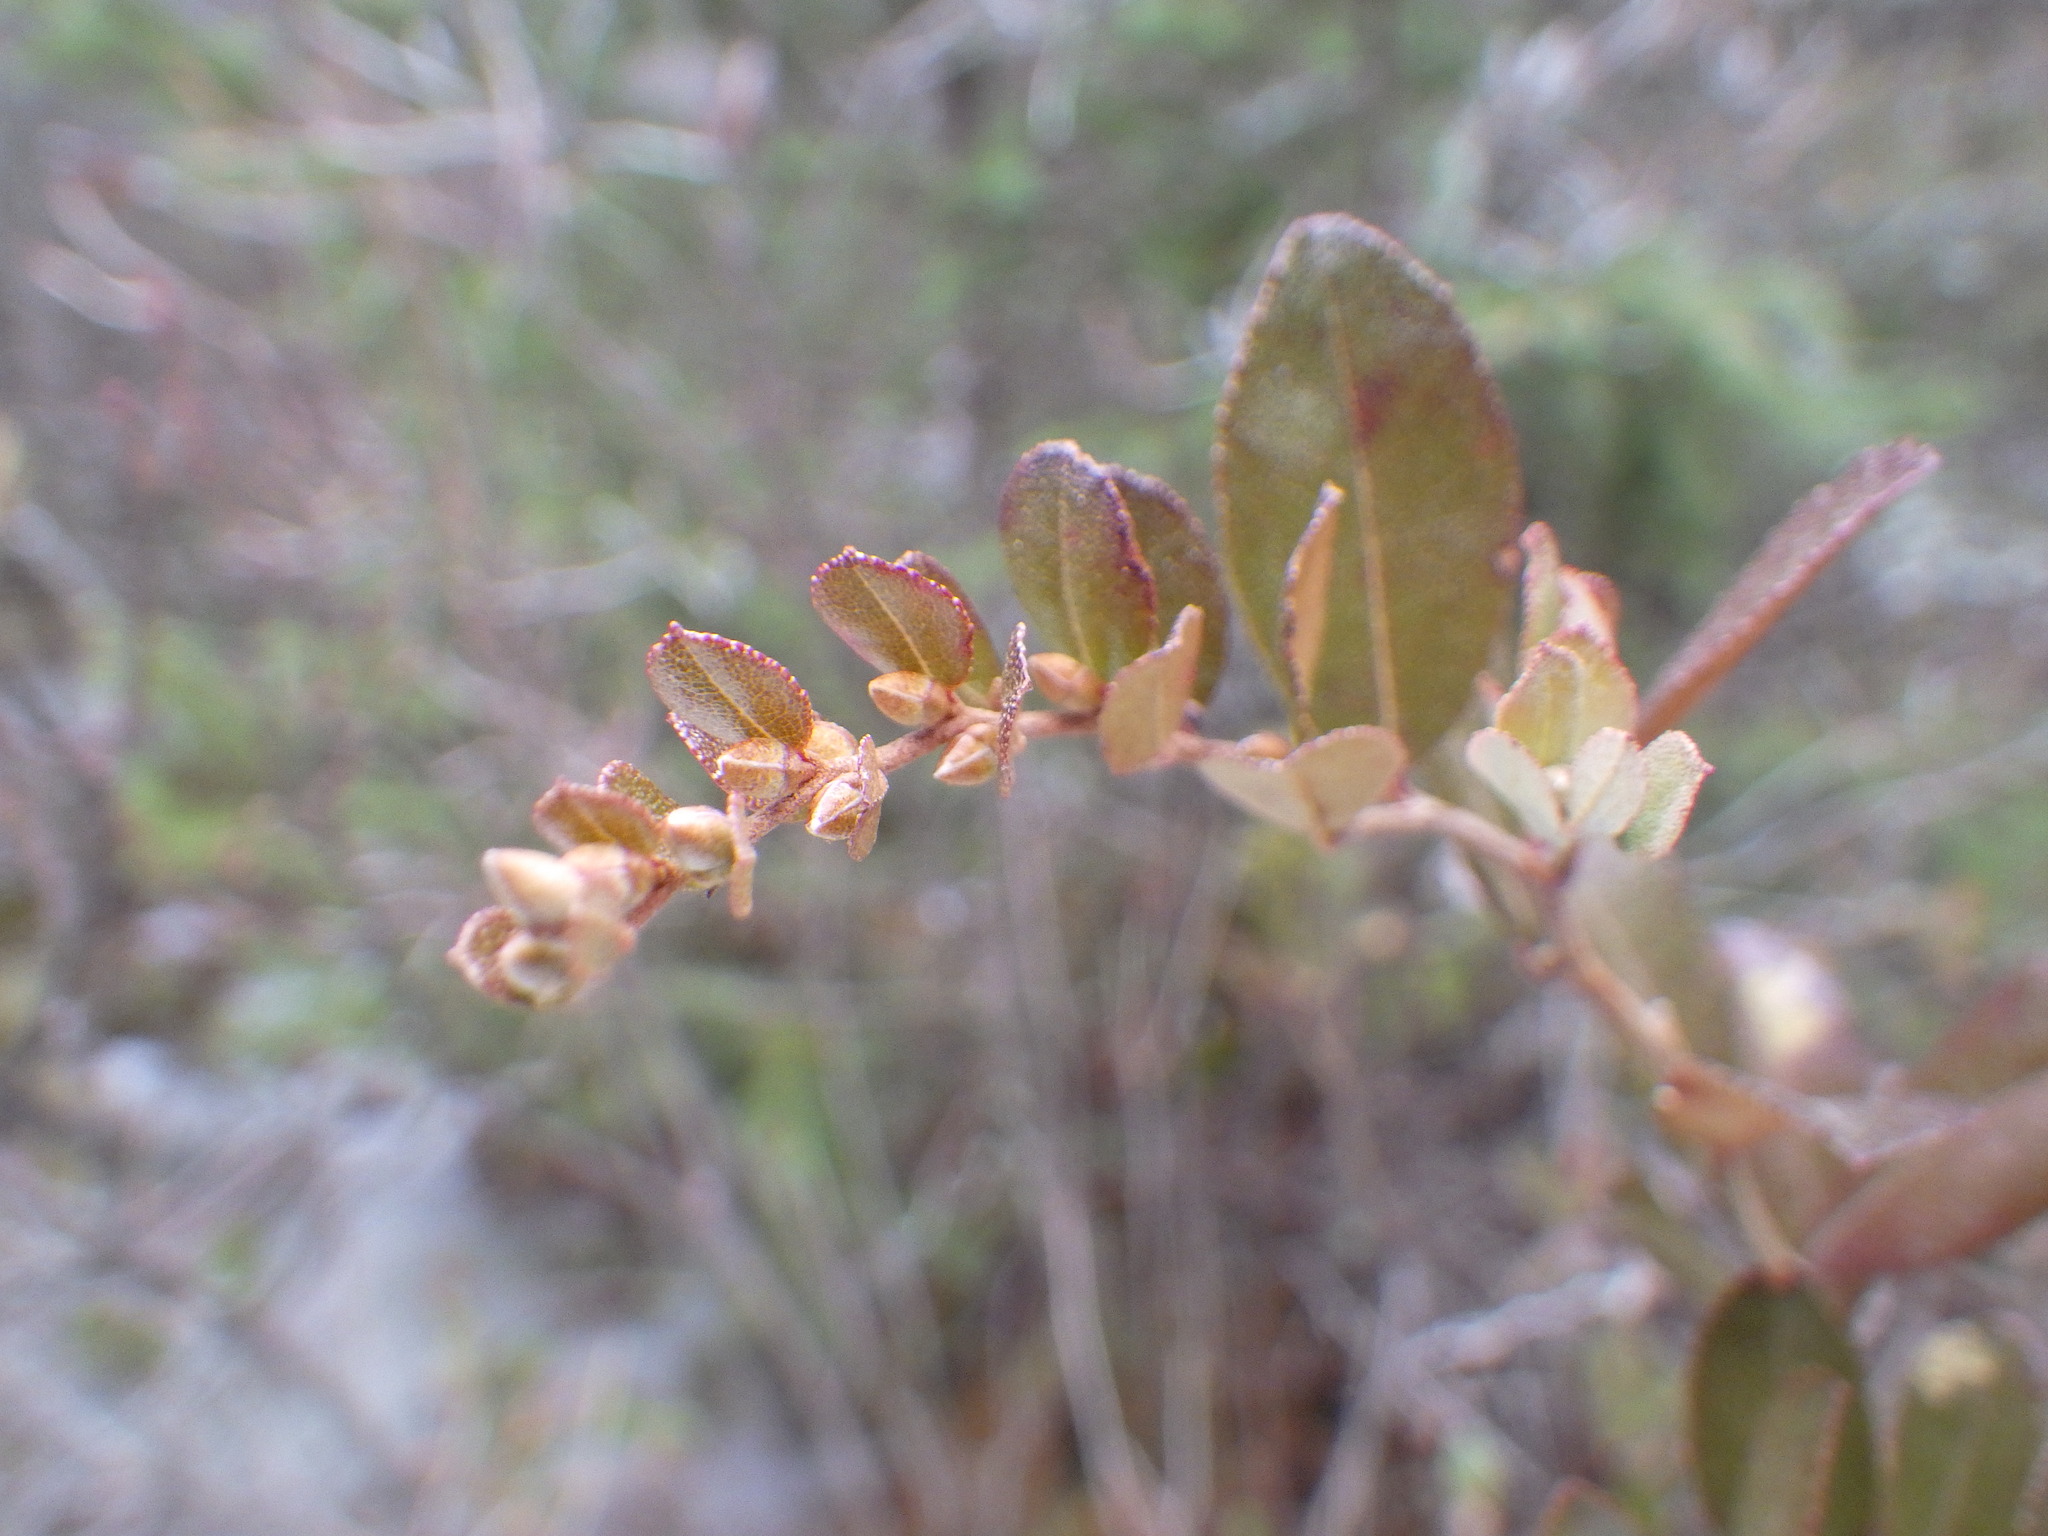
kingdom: Plantae
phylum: Tracheophyta
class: Magnoliopsida
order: Ericales
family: Ericaceae
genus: Chamaedaphne
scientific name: Chamaedaphne calyculata
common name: Leatherleaf
